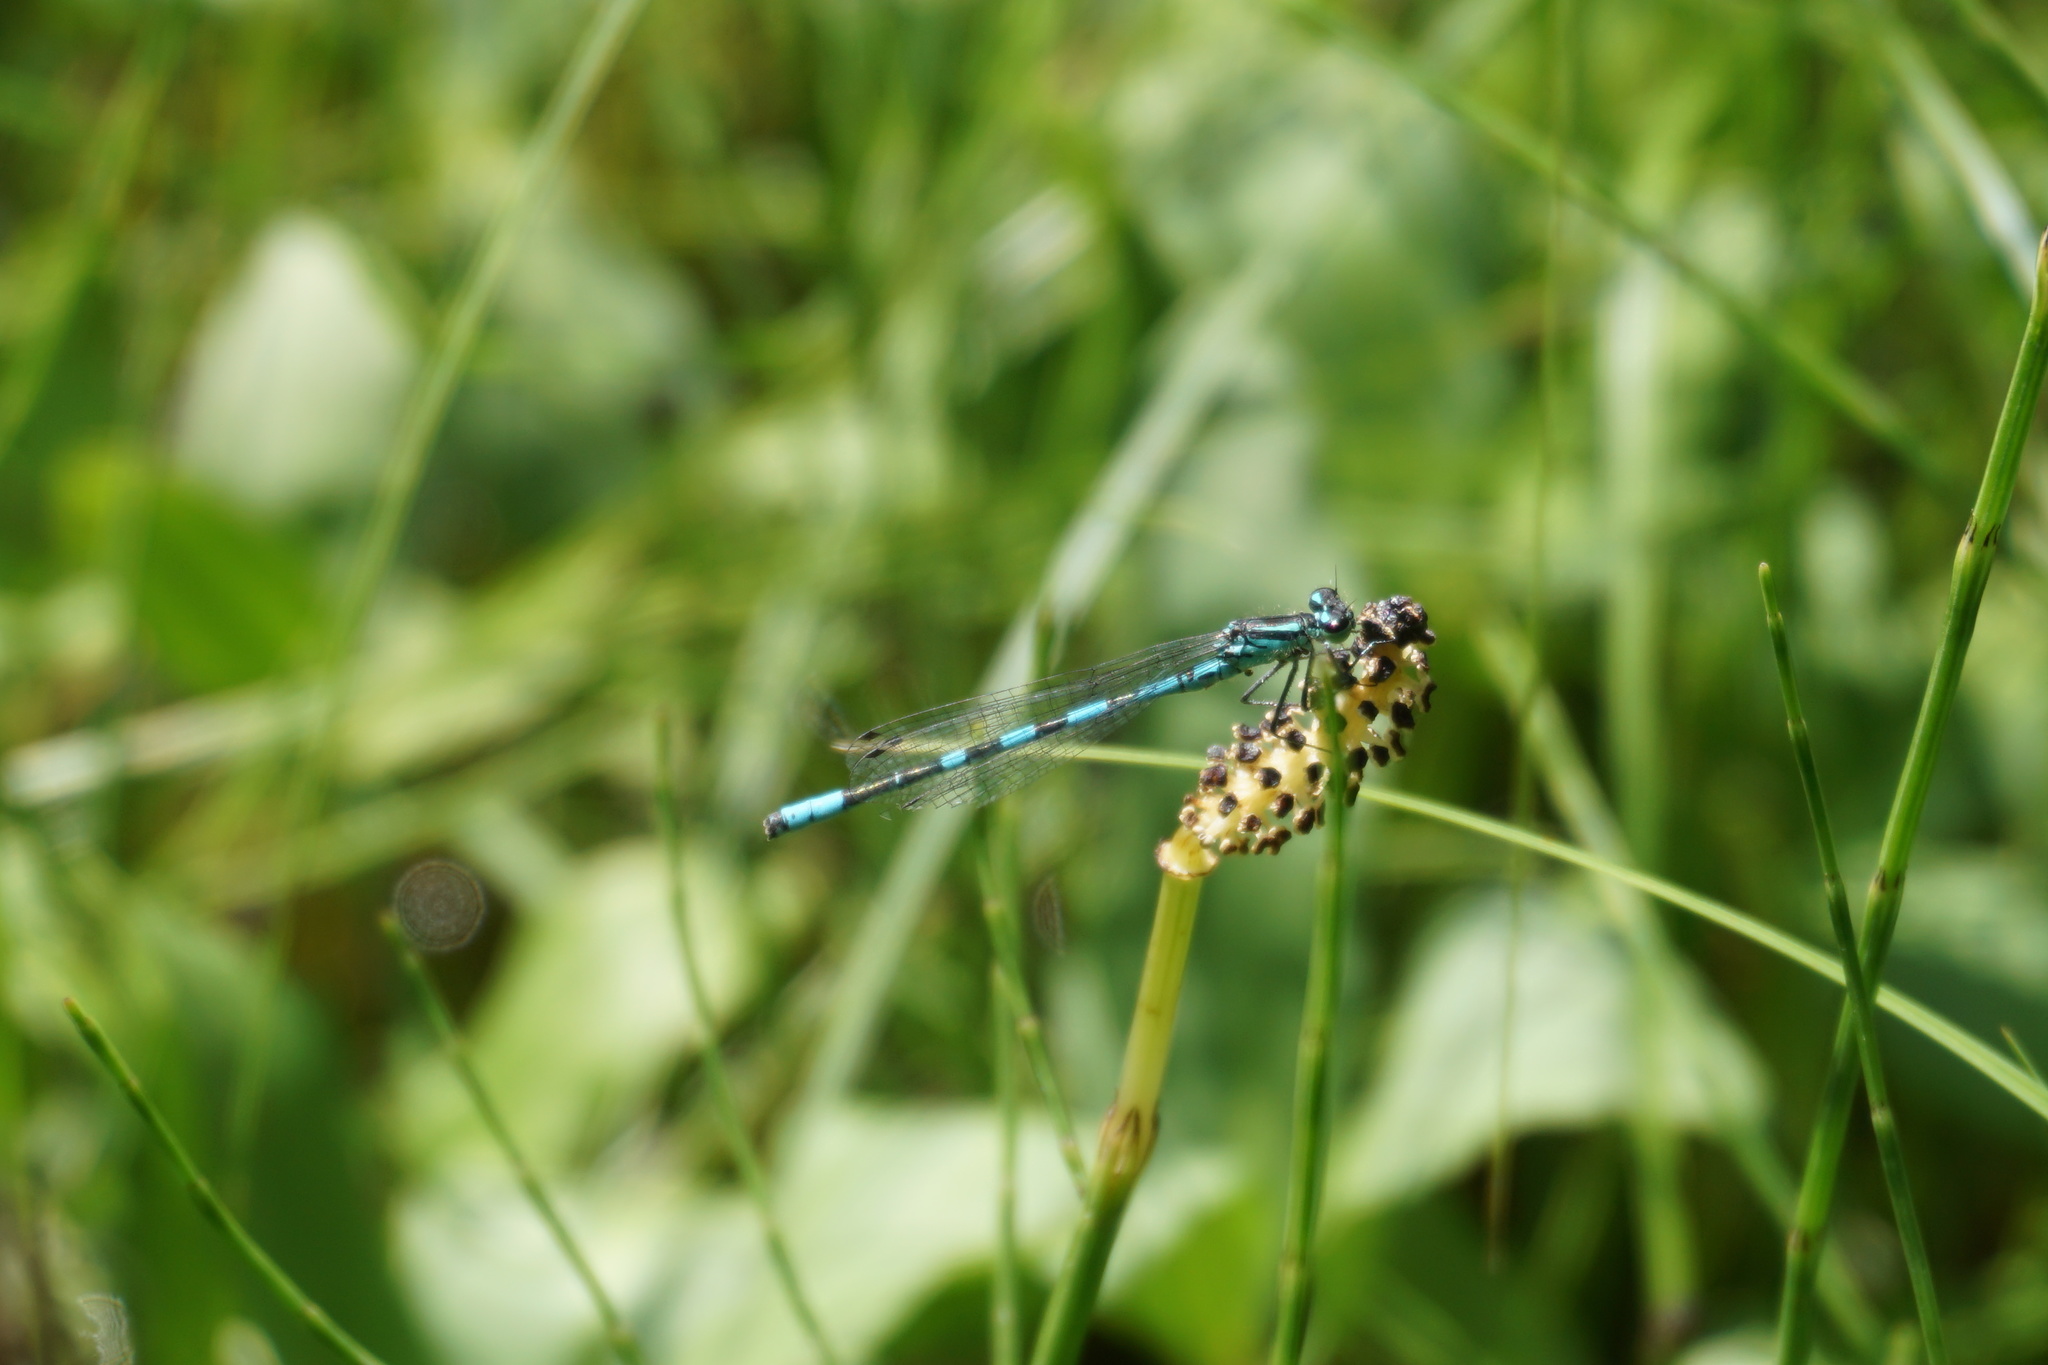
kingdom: Animalia
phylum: Arthropoda
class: Insecta
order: Odonata
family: Coenagrionidae
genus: Coenagrion
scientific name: Coenagrion hastulatum
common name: Spearhead bluet
